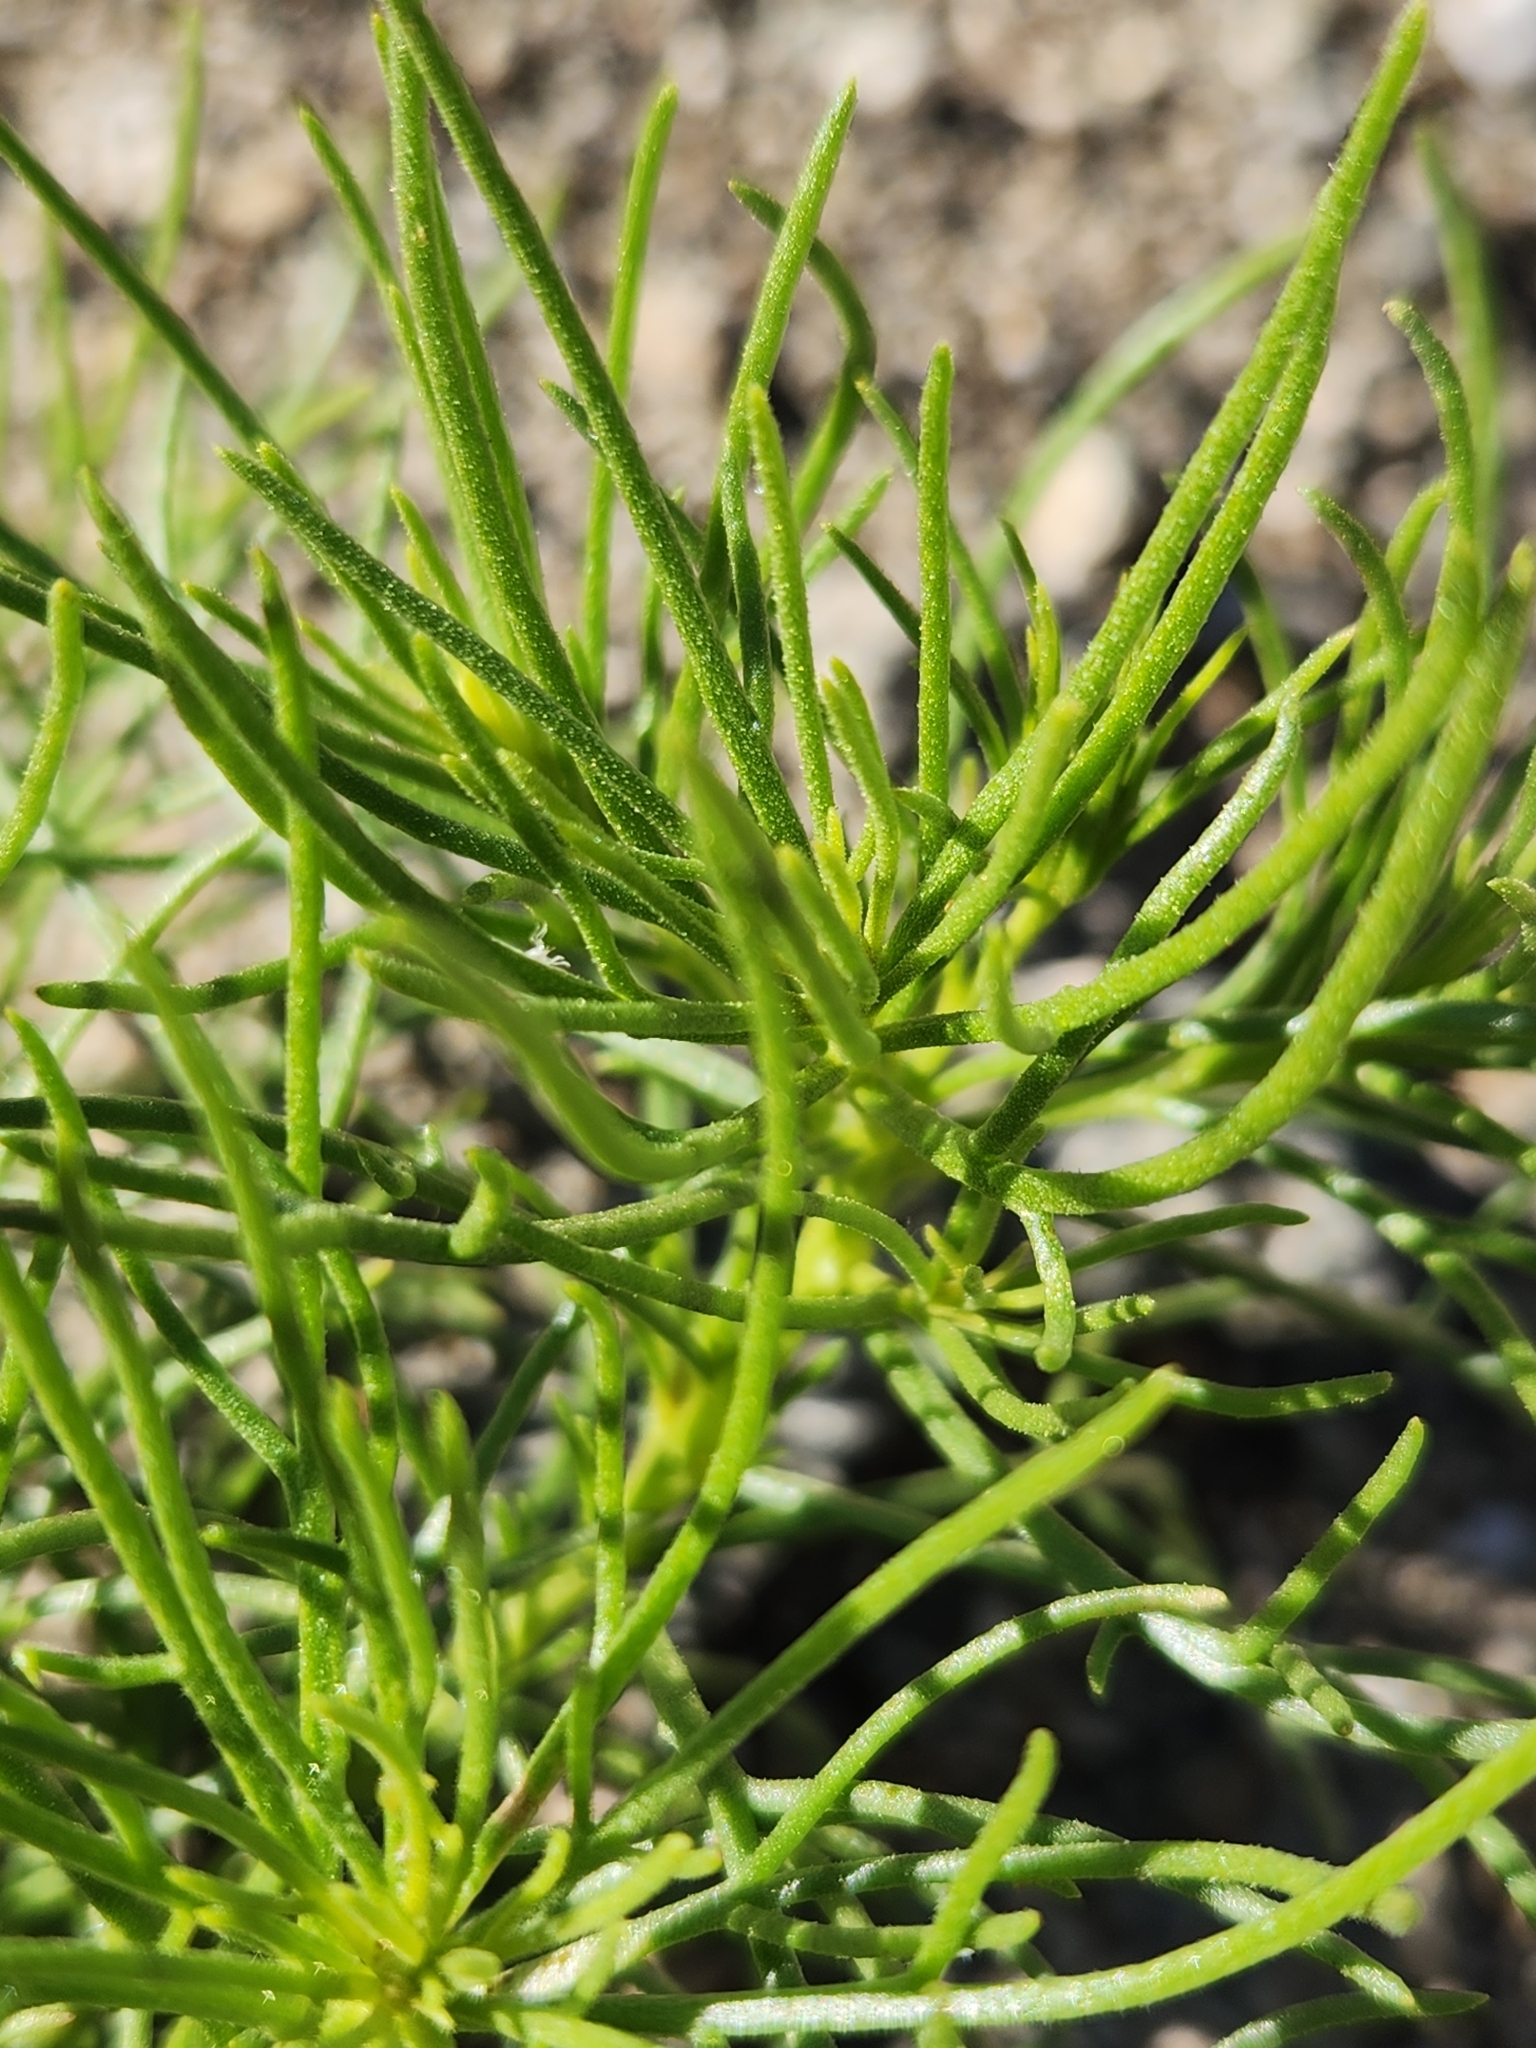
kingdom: Plantae
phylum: Tracheophyta
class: Magnoliopsida
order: Asterales
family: Asteraceae
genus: Peucephyllum
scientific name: Peucephyllum schottii
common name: Pygmy-cedar
